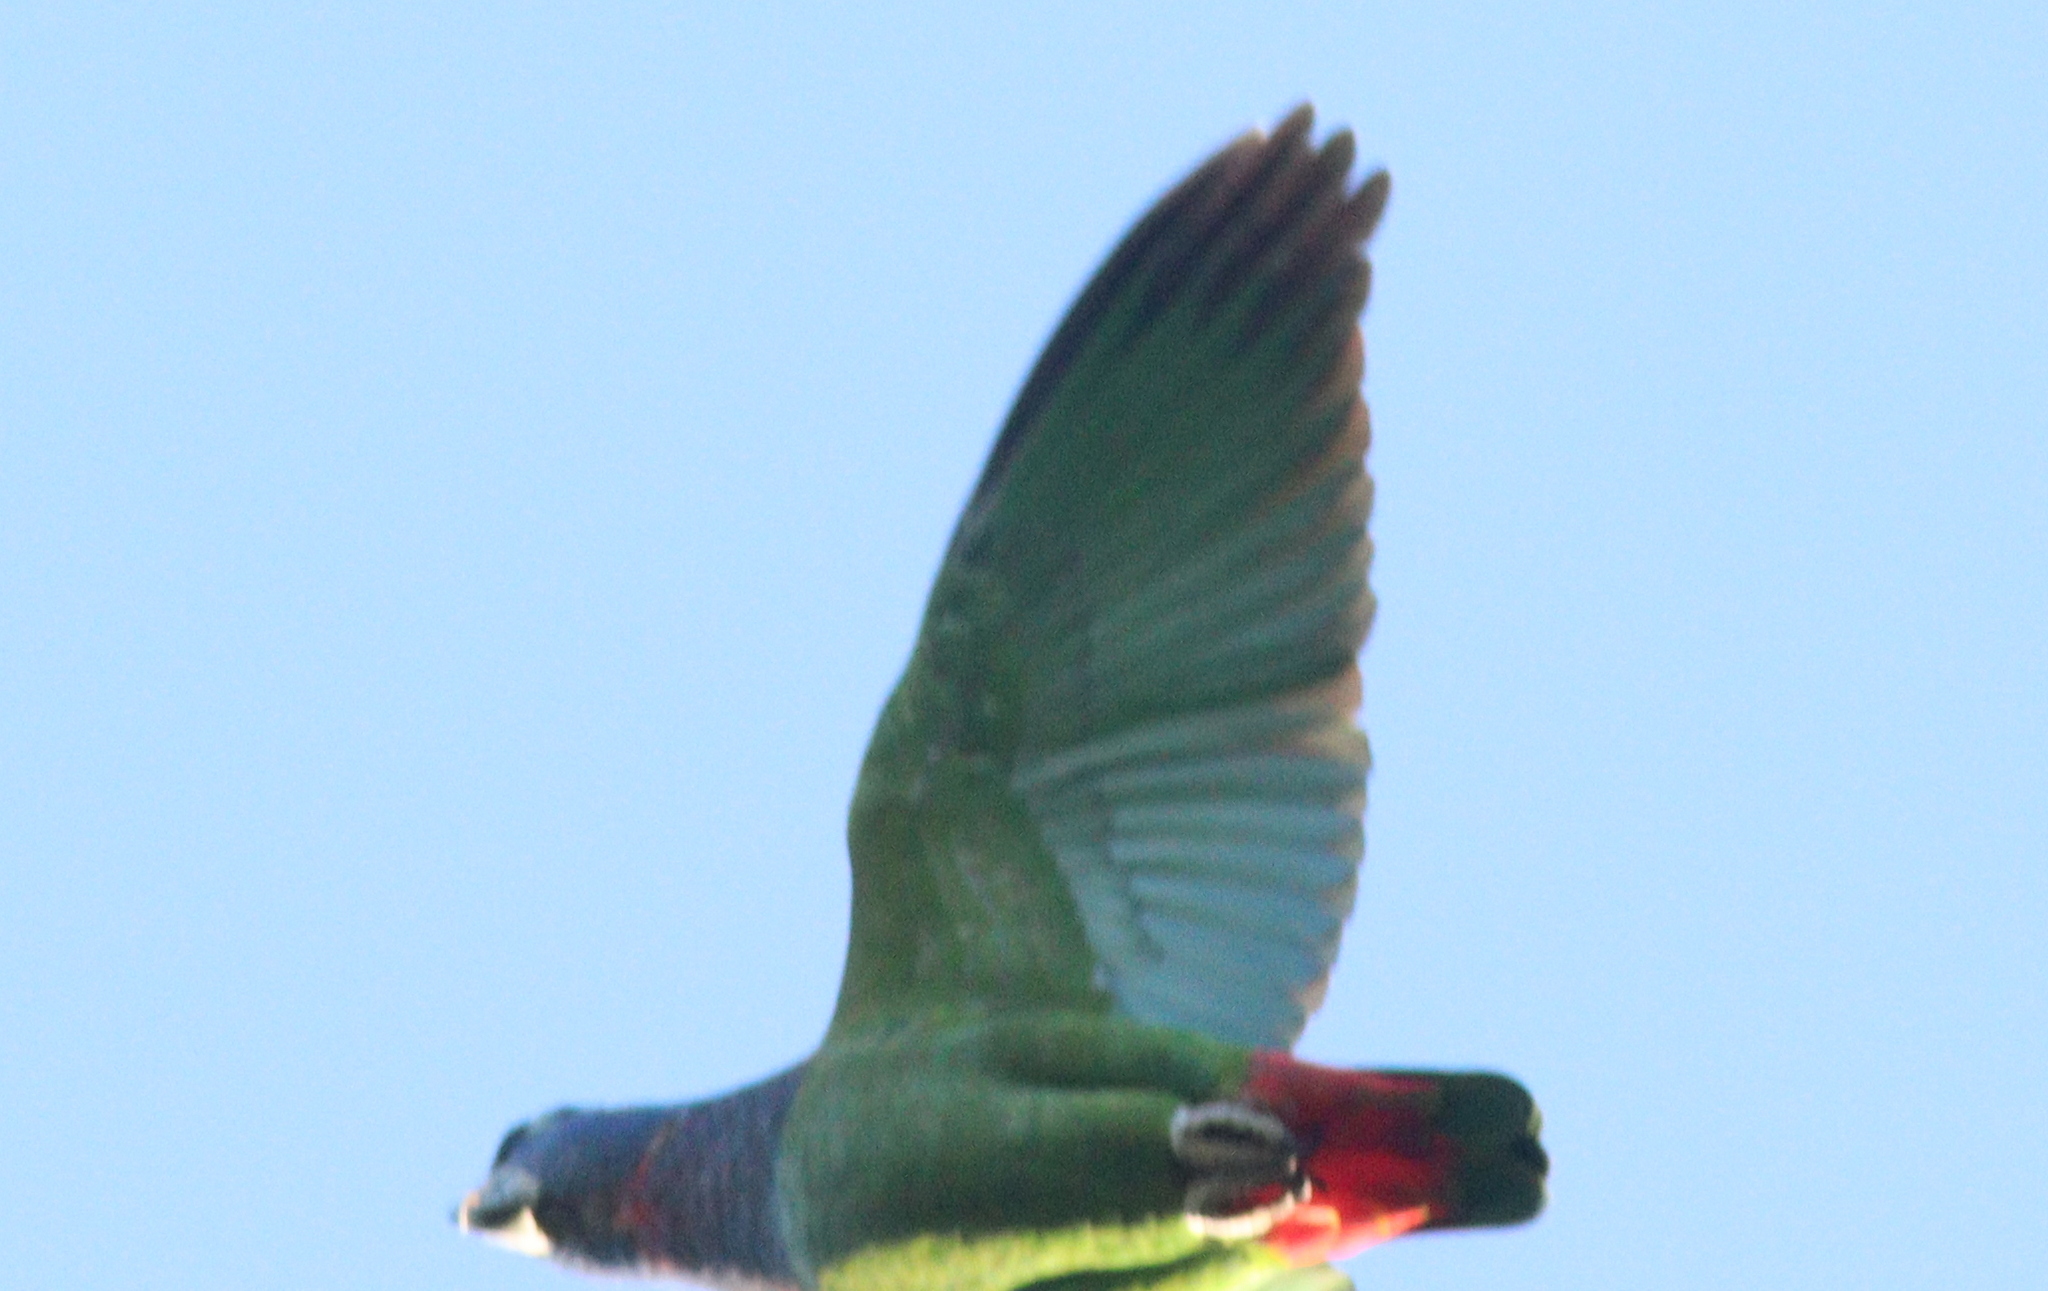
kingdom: Animalia
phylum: Chordata
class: Aves
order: Psittaciformes
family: Psittacidae
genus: Pionus
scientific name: Pionus menstruus
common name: Blue-headed parrot
